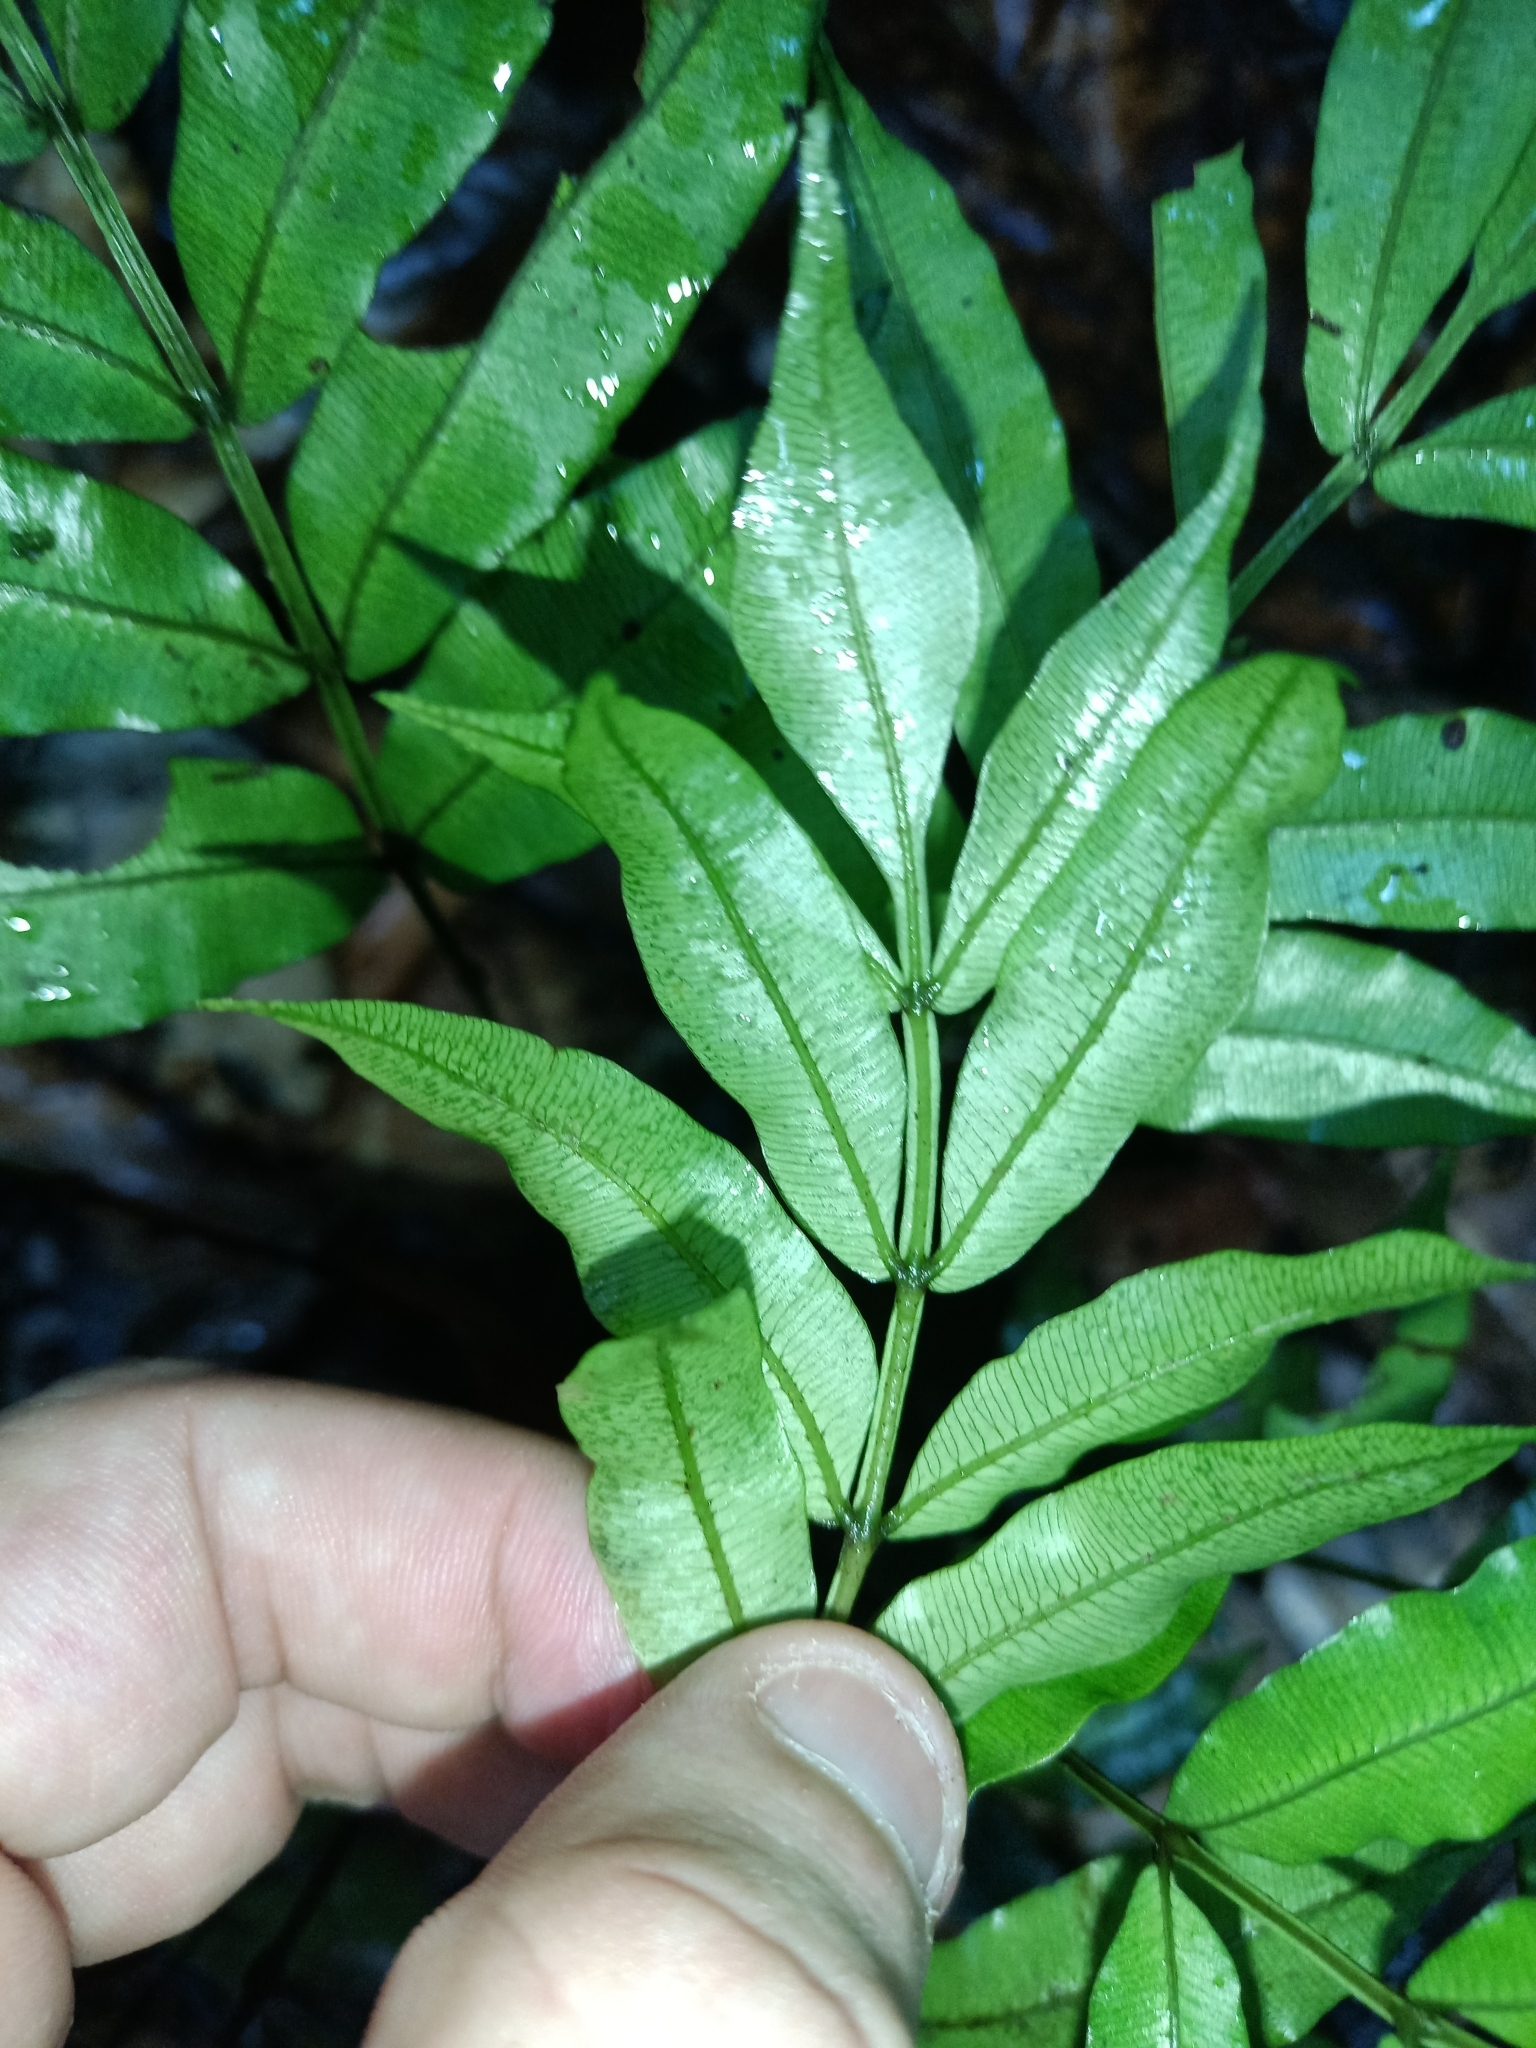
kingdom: Plantae
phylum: Tracheophyta
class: Polypodiopsida
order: Marattiales
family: Marattiaceae
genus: Danaea
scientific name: Danaea leprieurii
